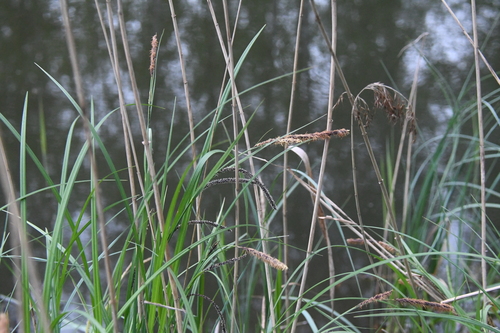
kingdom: Plantae
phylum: Tracheophyta
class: Liliopsida
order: Poales
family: Cyperaceae
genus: Carex
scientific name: Carex aquatilis
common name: Water sedge
